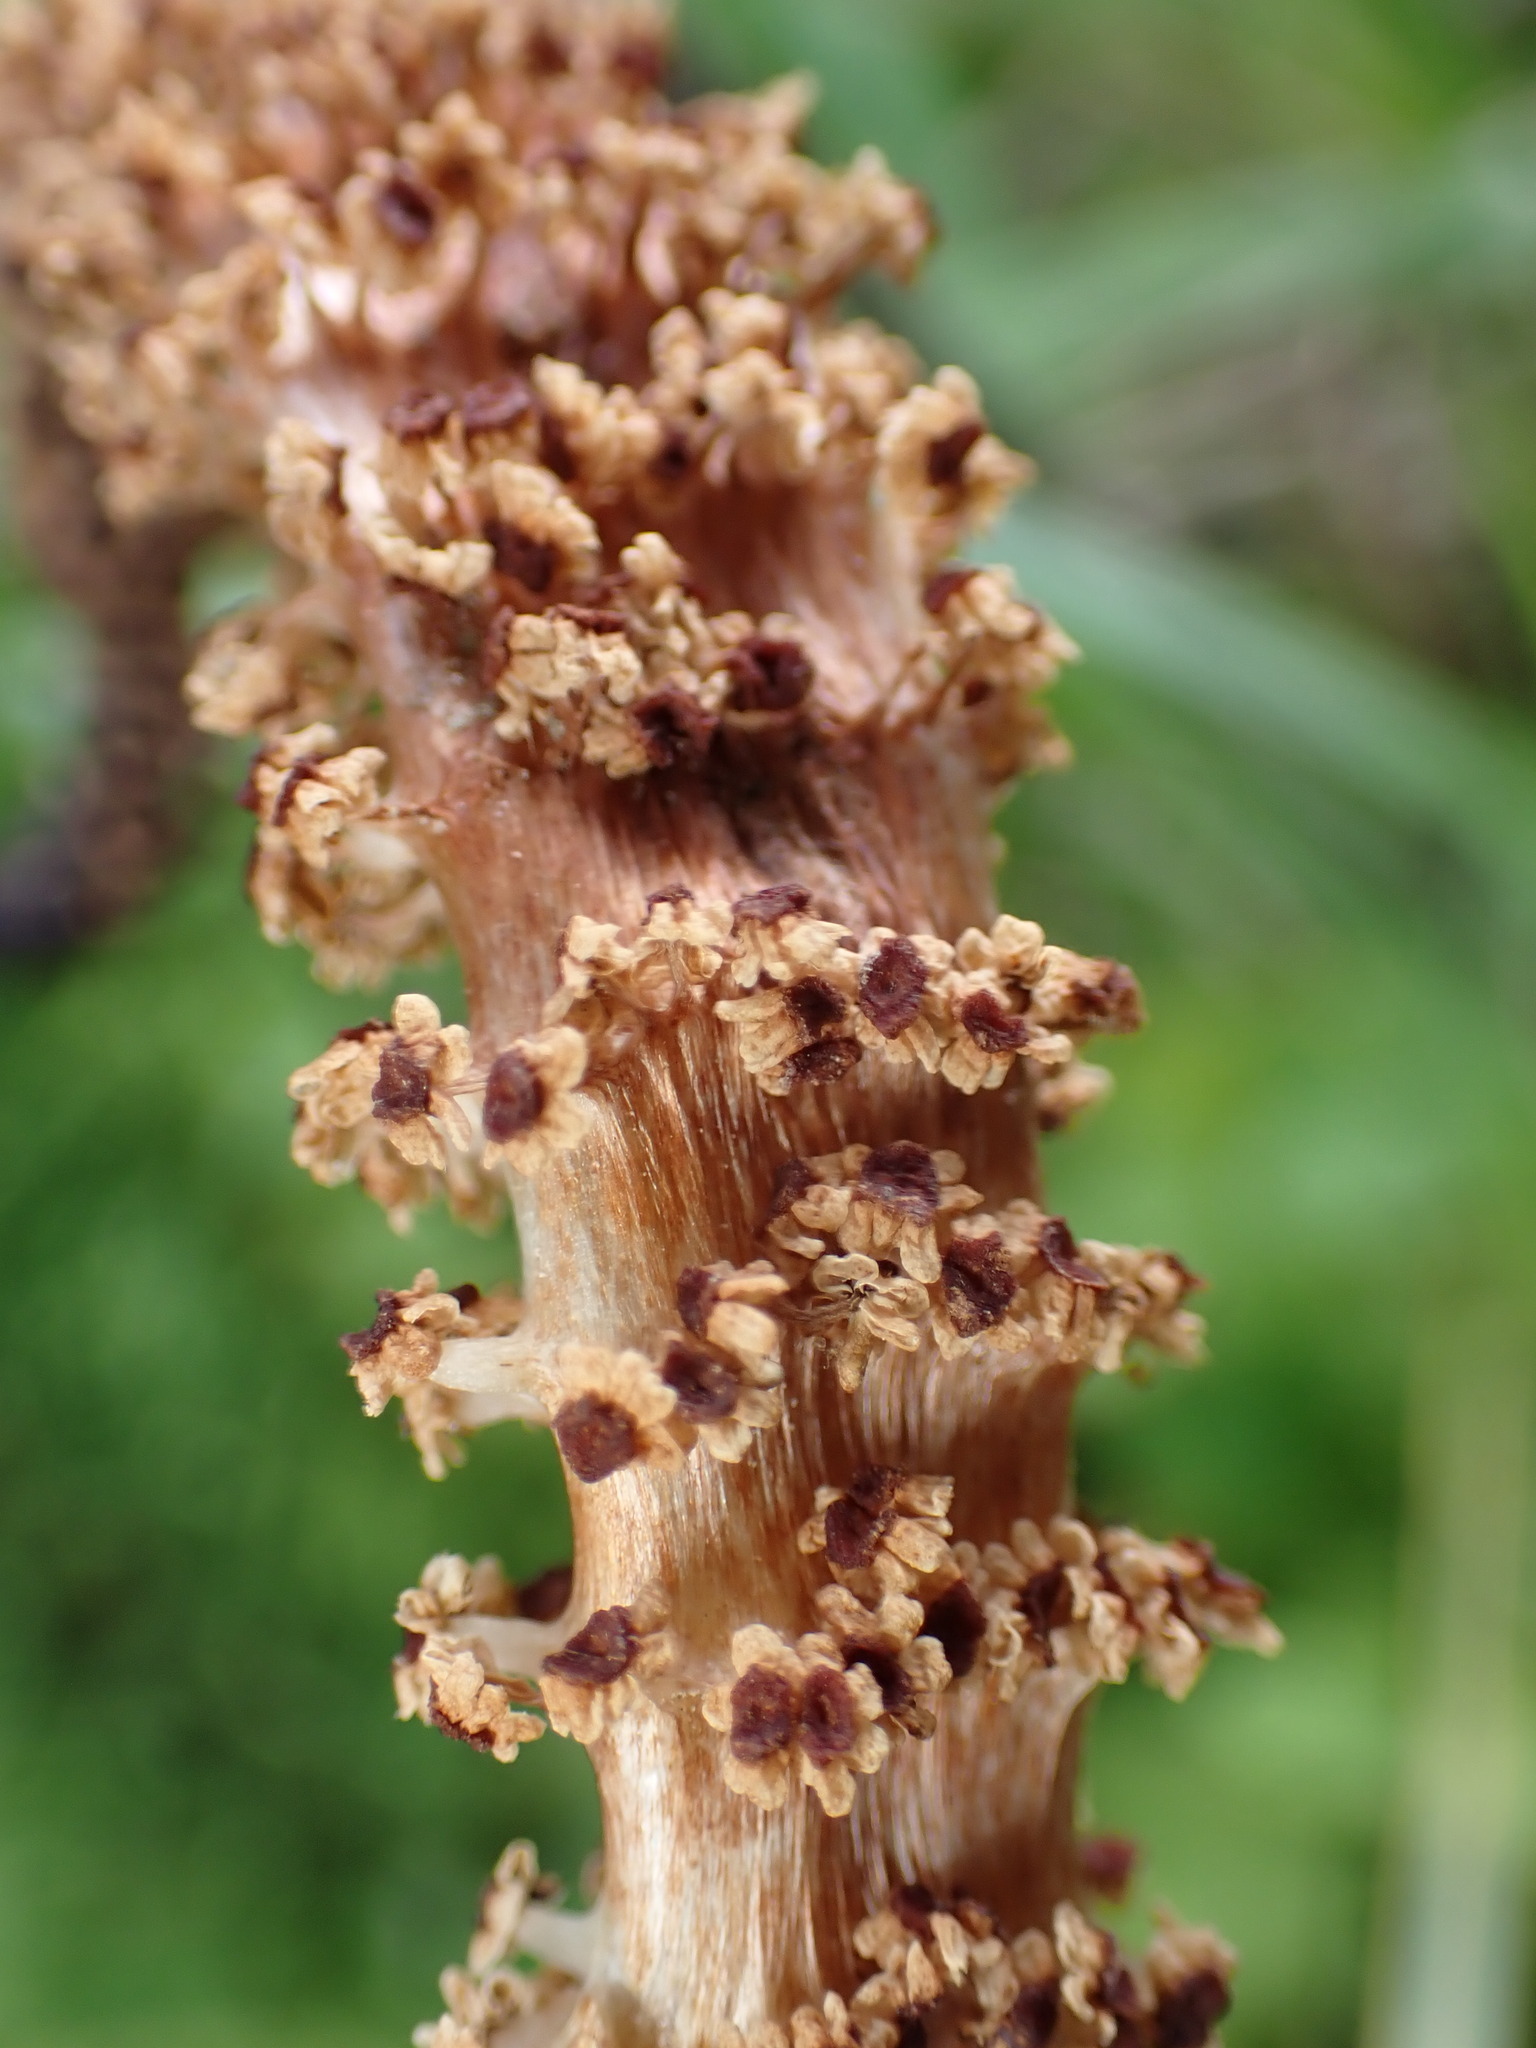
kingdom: Plantae
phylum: Tracheophyta
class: Polypodiopsida
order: Equisetales
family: Equisetaceae
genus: Equisetum
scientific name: Equisetum braunii
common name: Braun's horsetail
